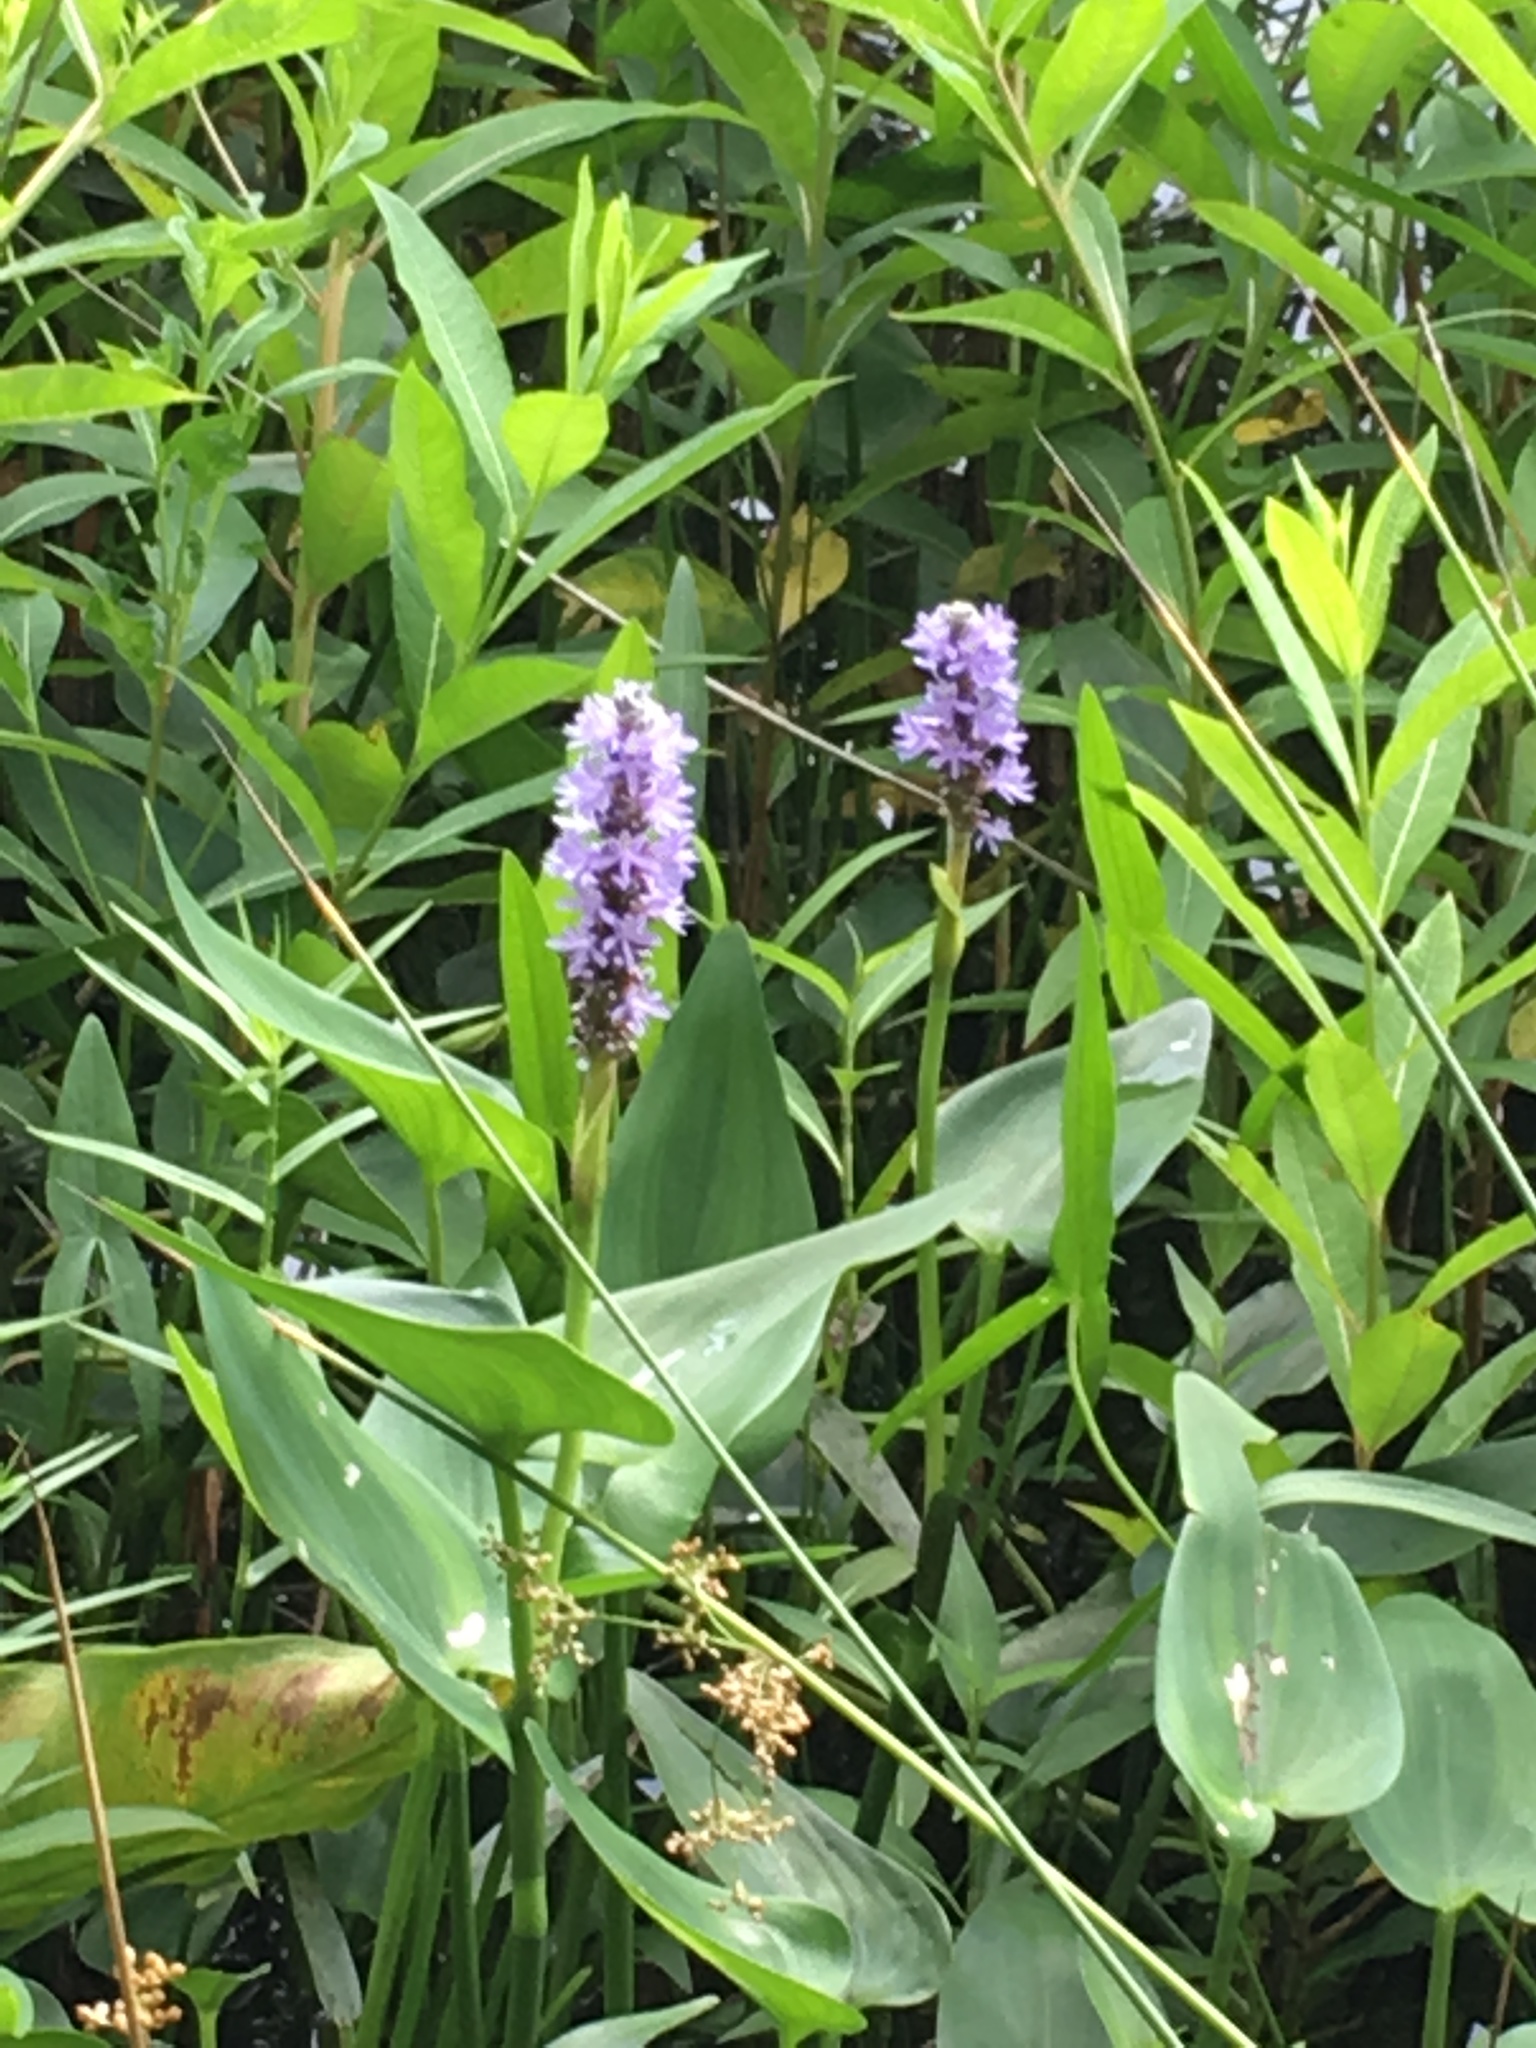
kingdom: Plantae
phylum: Tracheophyta
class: Liliopsida
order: Commelinales
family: Pontederiaceae
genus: Pontederia
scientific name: Pontederia cordata
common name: Pickerelweed
